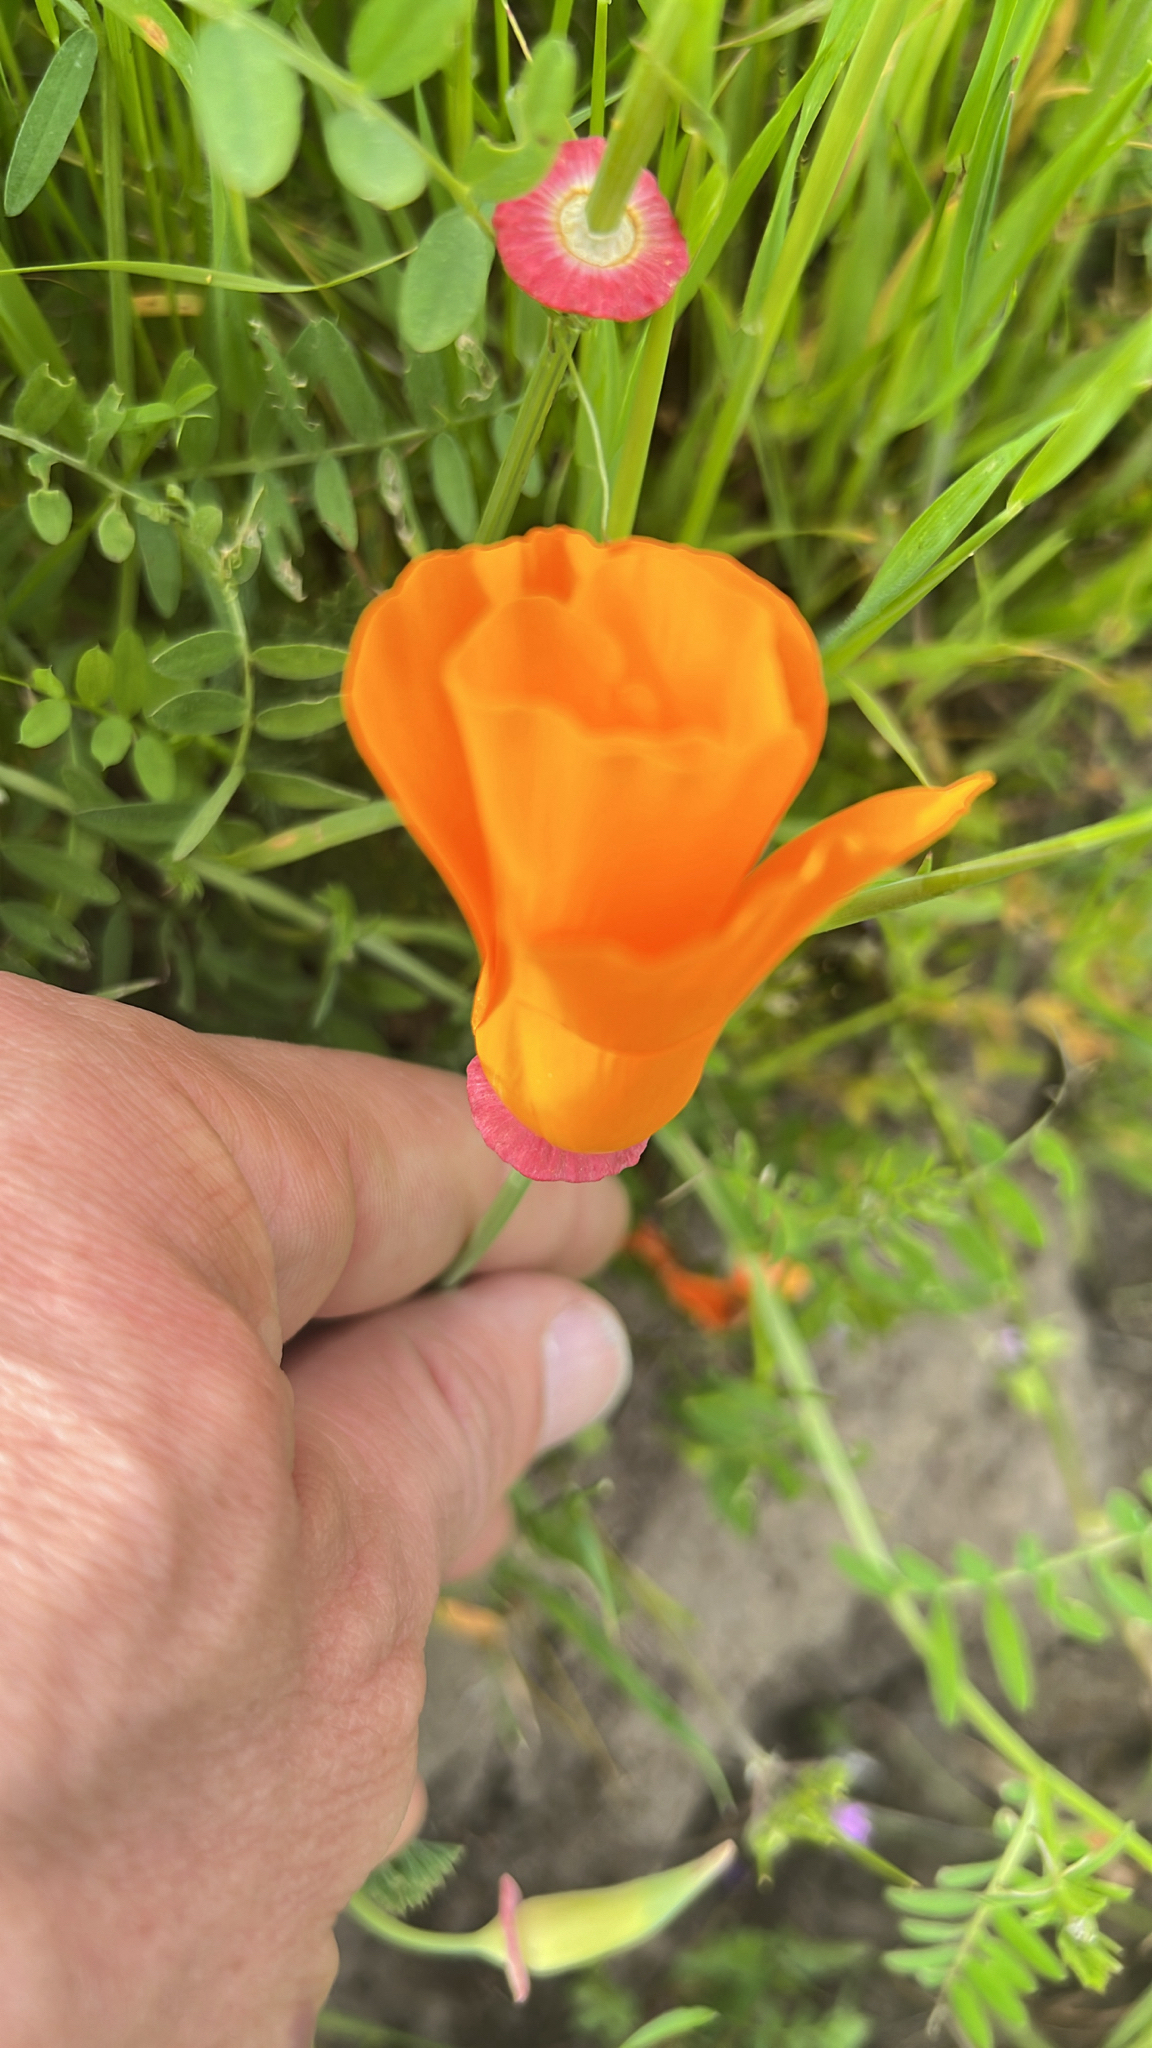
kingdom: Plantae
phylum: Tracheophyta
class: Magnoliopsida
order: Ranunculales
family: Papaveraceae
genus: Eschscholzia
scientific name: Eschscholzia californica
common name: California poppy
